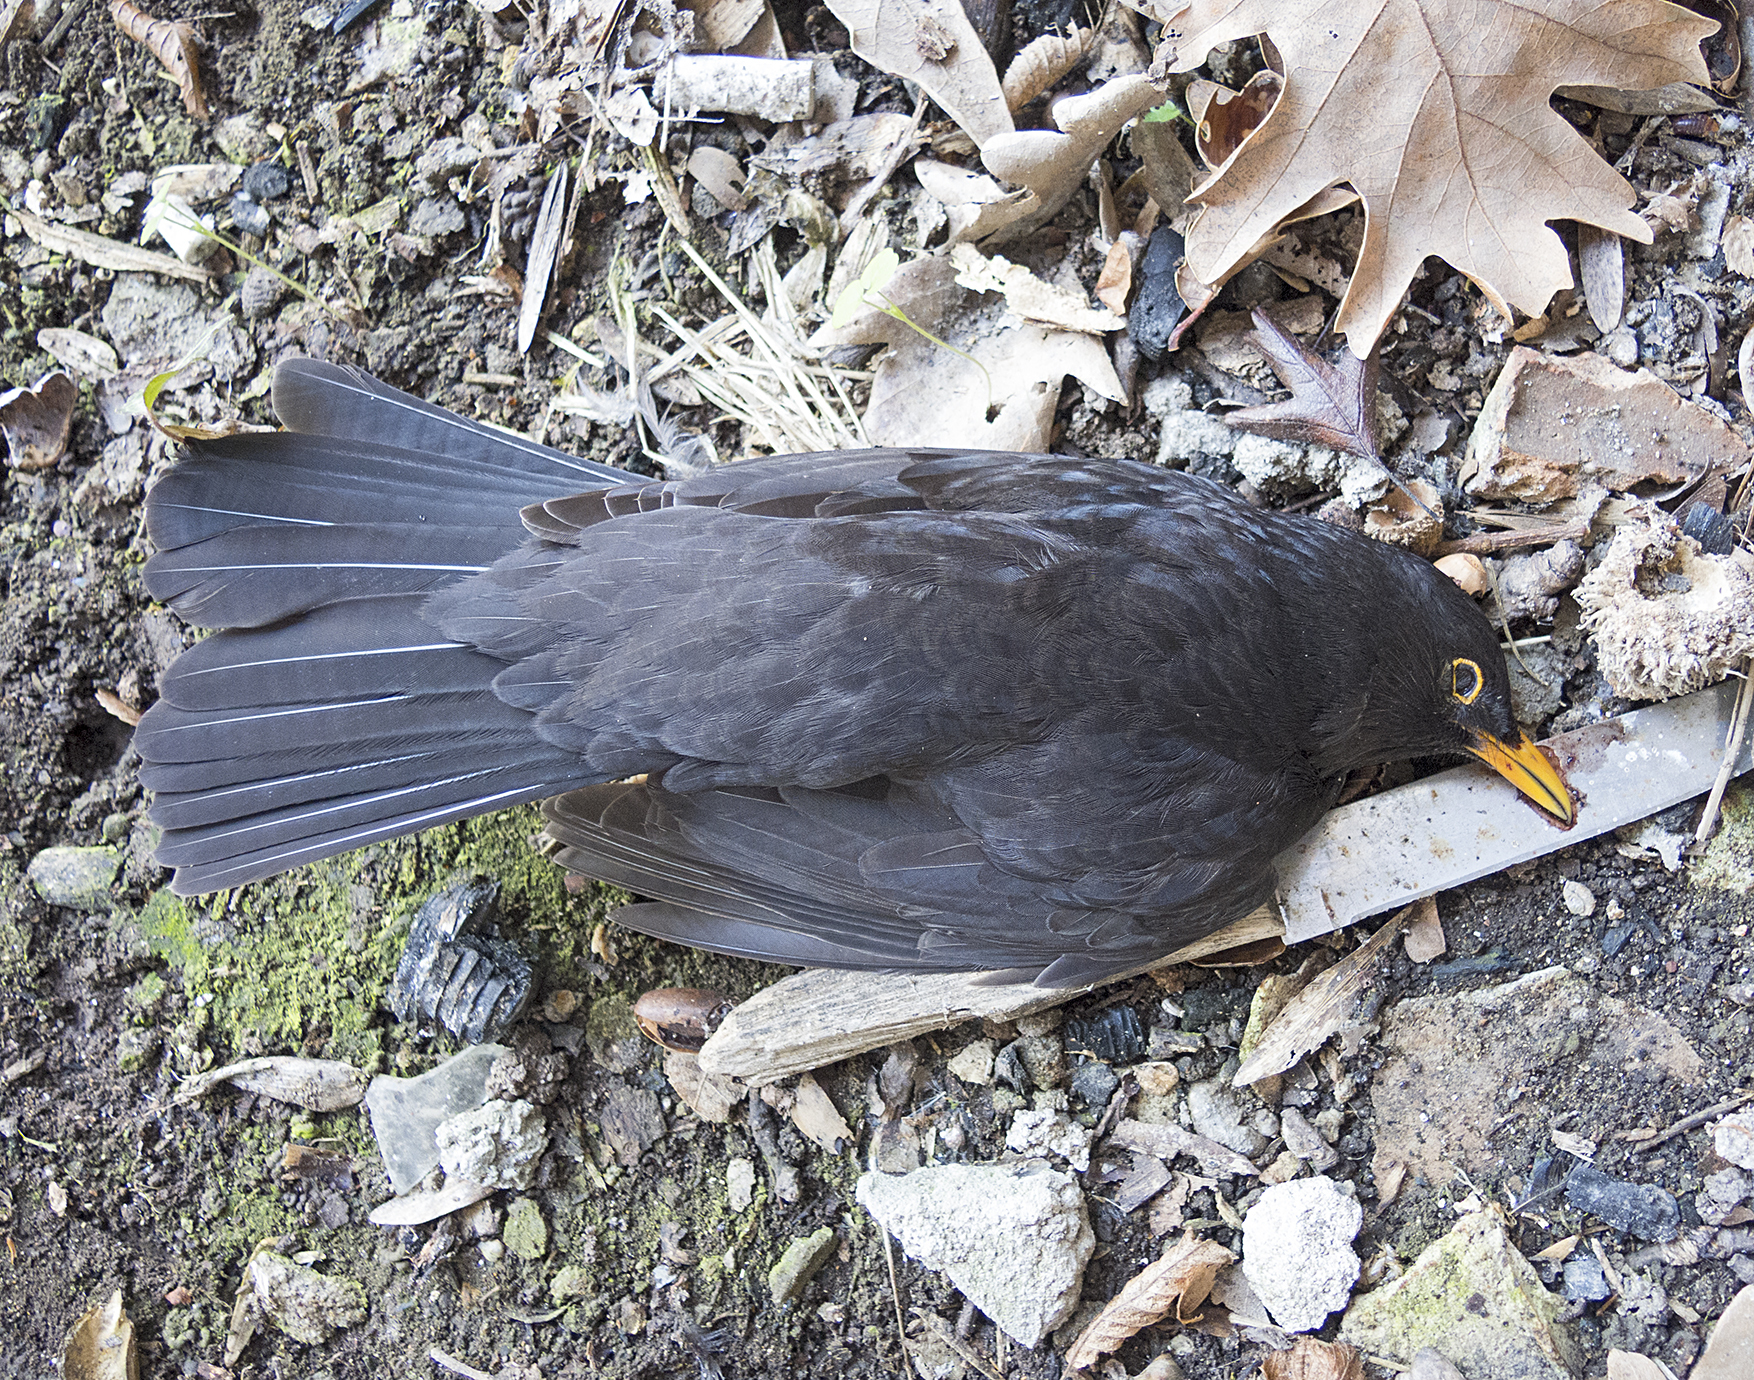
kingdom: Animalia
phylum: Chordata
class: Aves
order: Passeriformes
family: Turdidae
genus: Turdus
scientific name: Turdus merula
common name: Common blackbird
